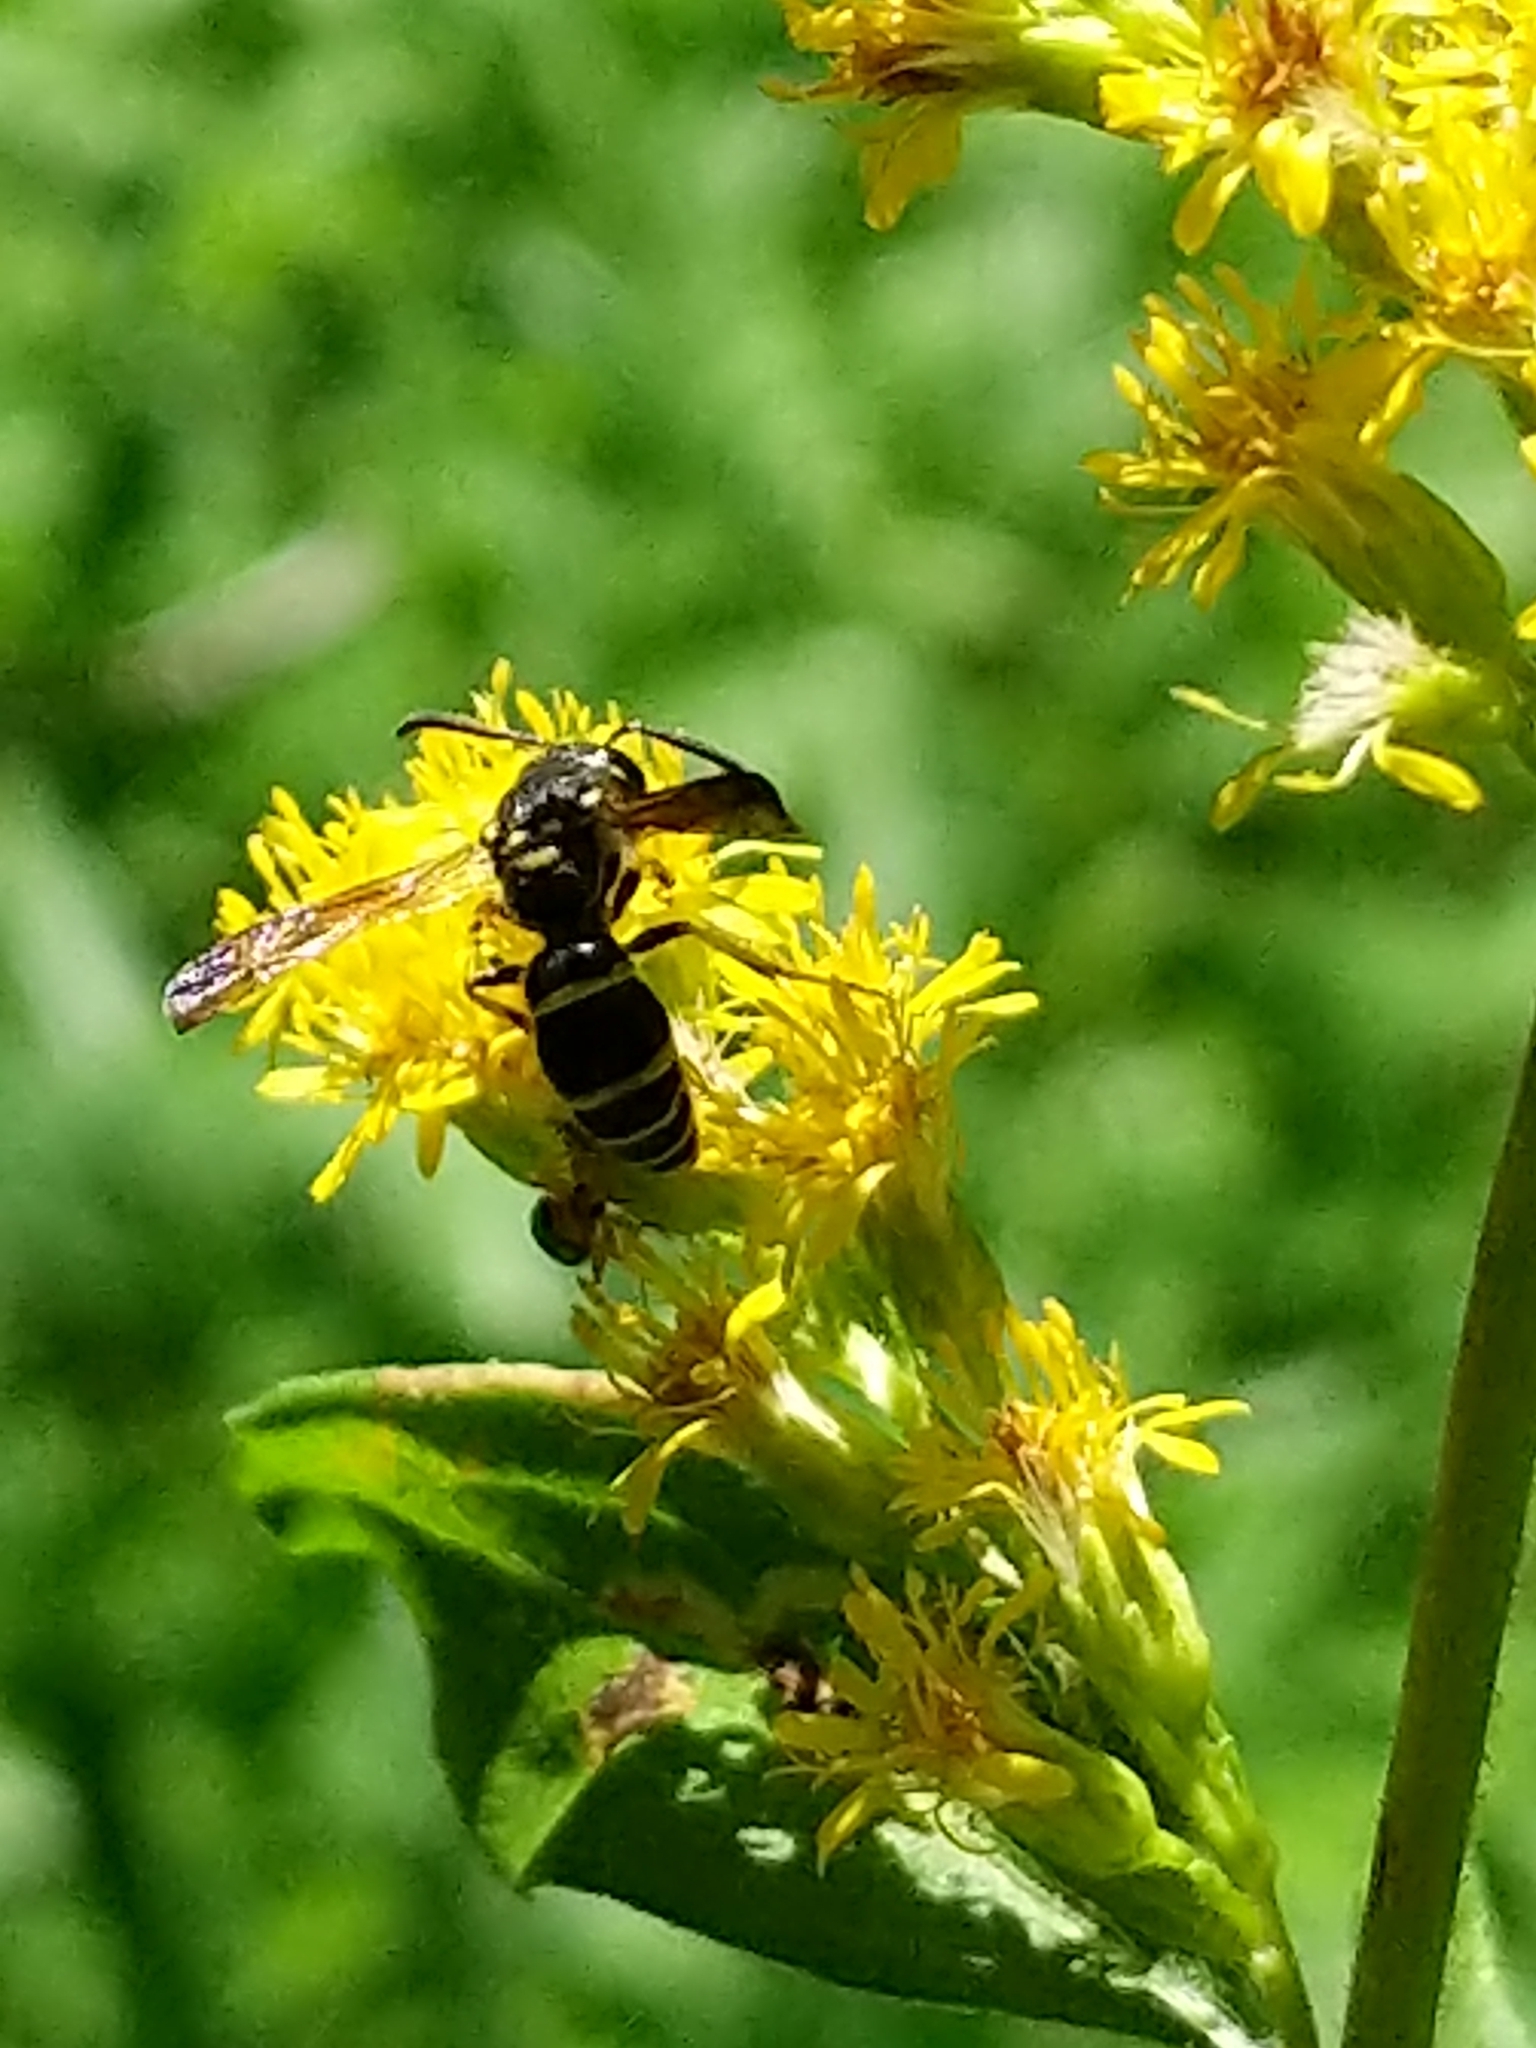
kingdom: Animalia
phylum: Arthropoda
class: Insecta
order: Hymenoptera
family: Vespidae
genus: Ancistrocerus
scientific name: Ancistrocerus adiabatus
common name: Bramble mason wasp
